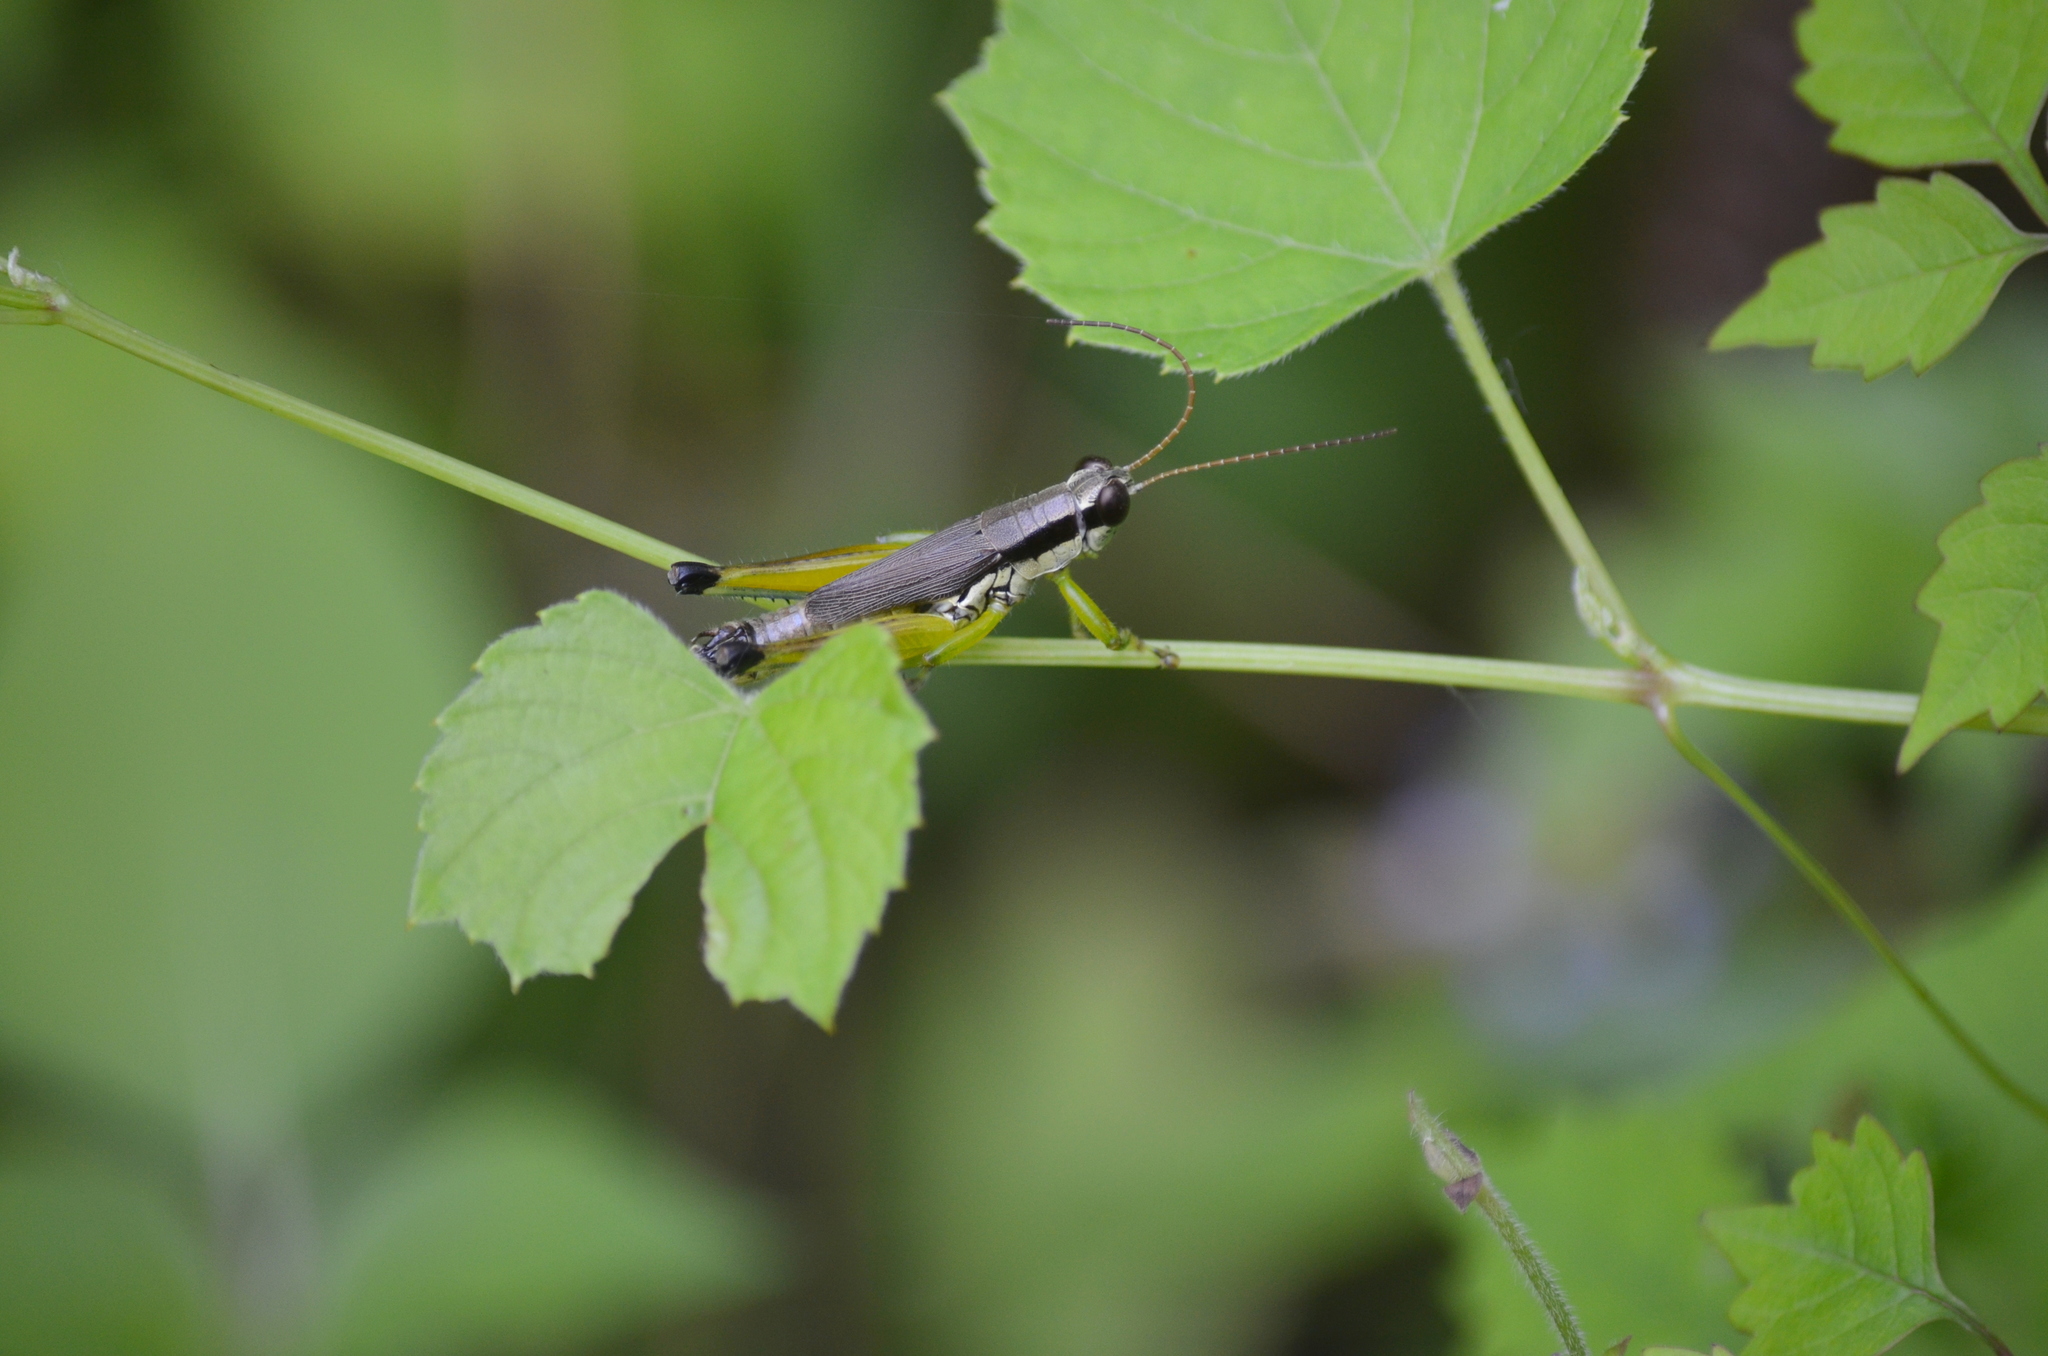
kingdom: Animalia
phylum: Arthropoda
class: Insecta
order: Orthoptera
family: Acrididae
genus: Paroxya
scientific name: Paroxya clavuligera
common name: Olive-green swamp grasshopper
